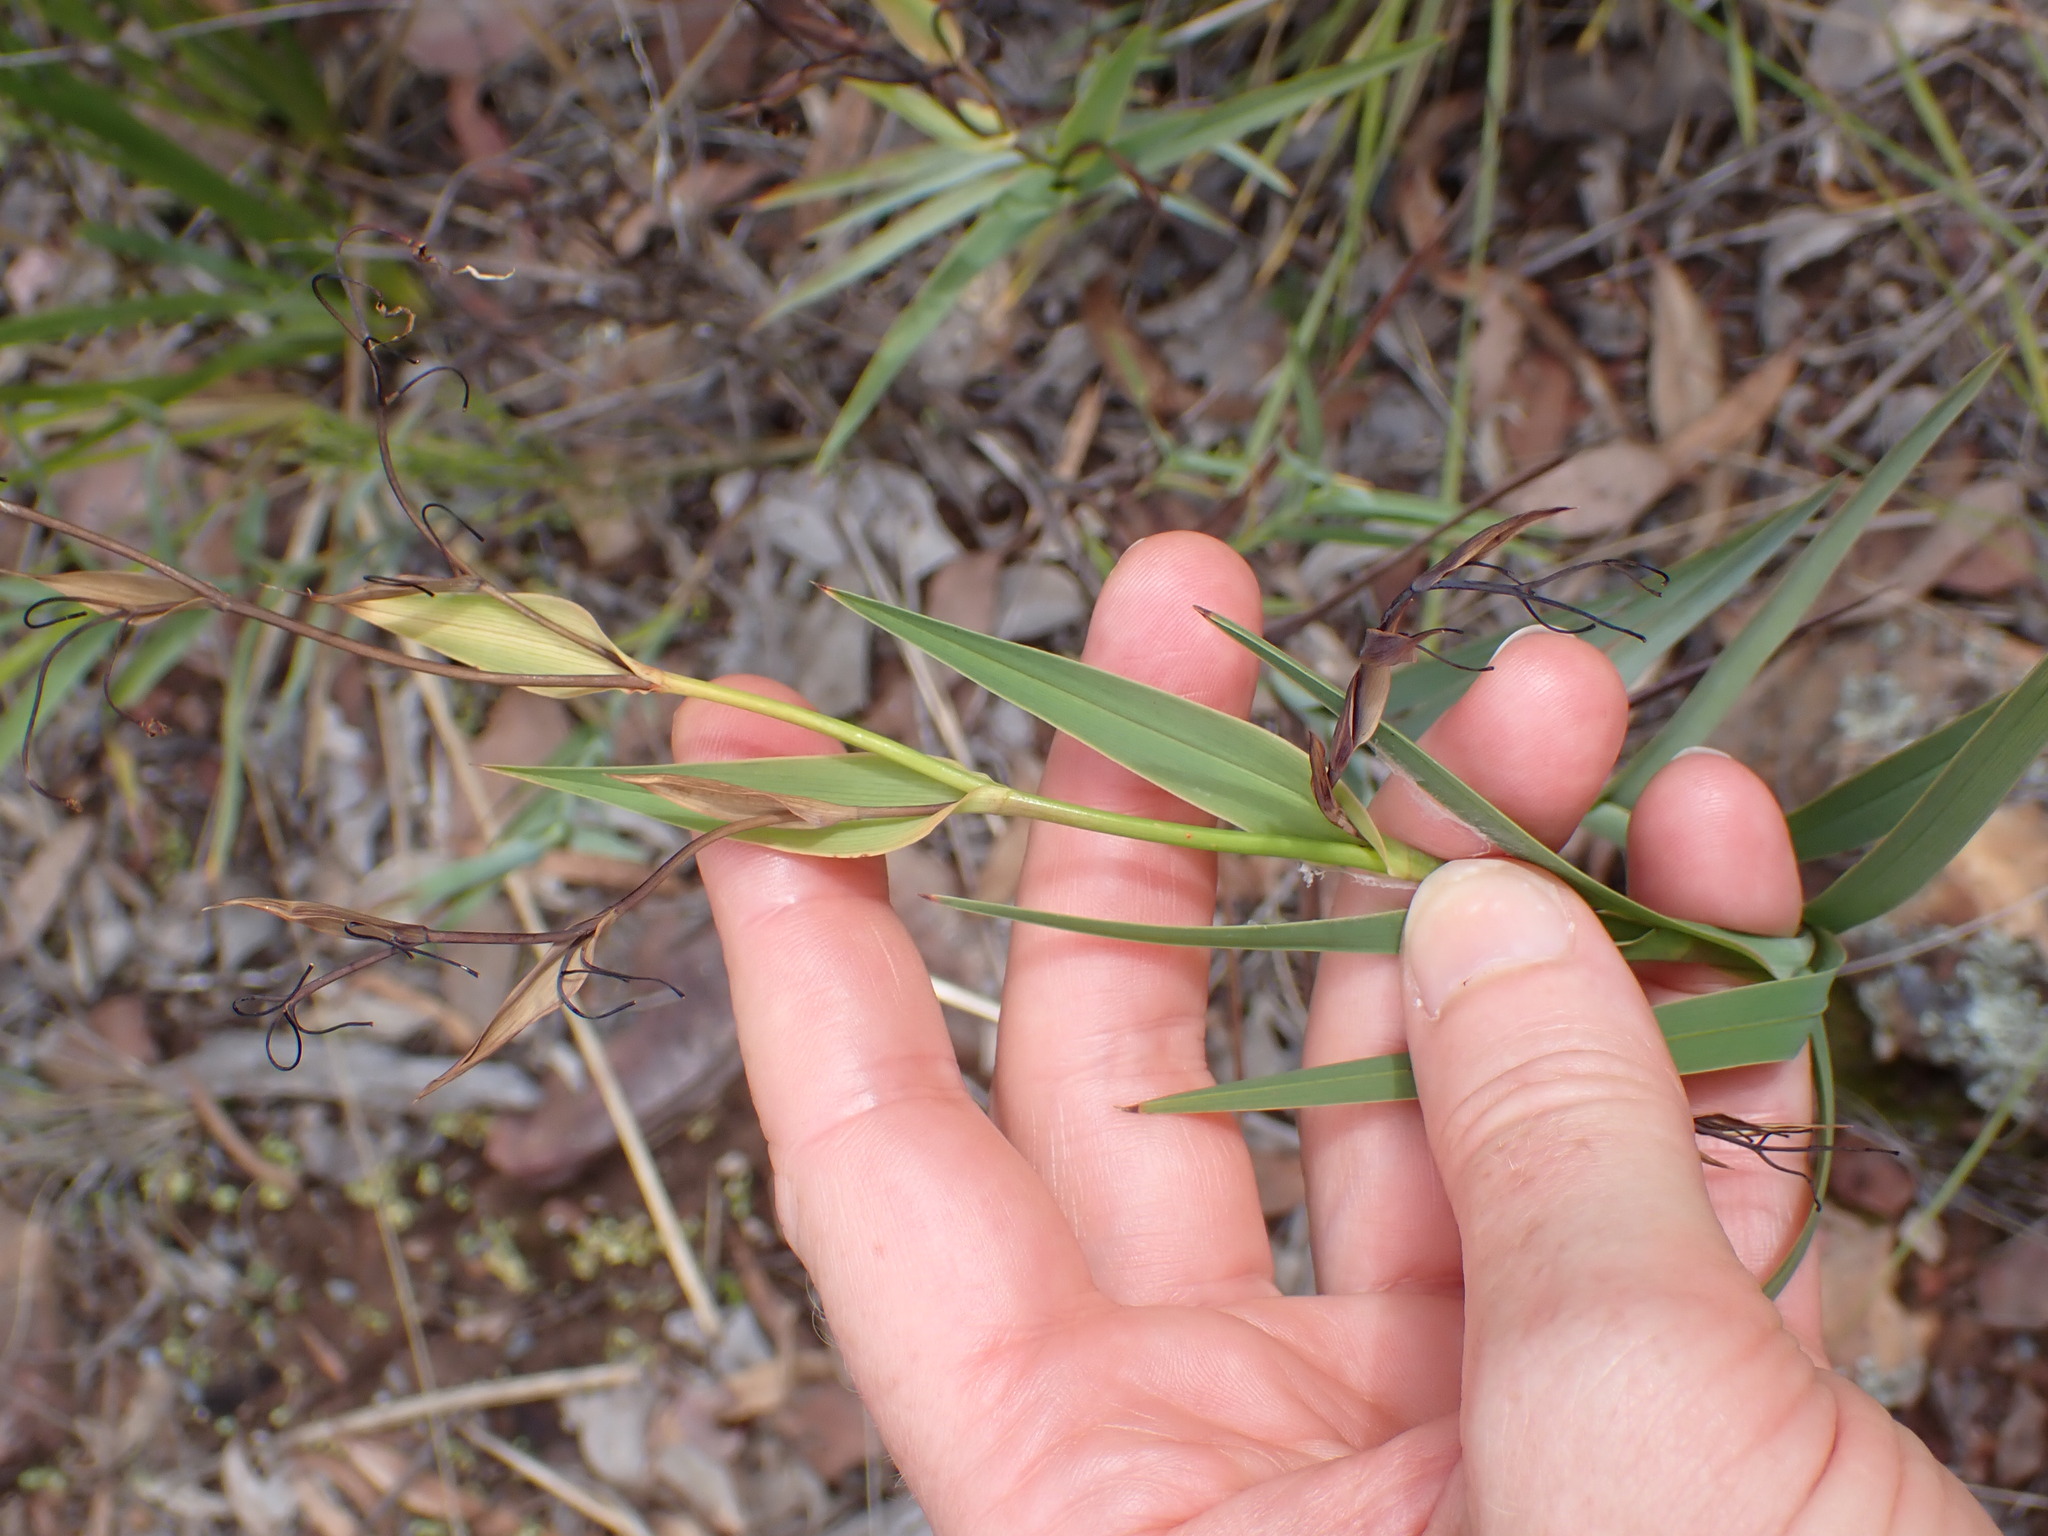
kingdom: Plantae
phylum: Tracheophyta
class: Liliopsida
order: Asparagales
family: Asphodelaceae
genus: Stypandra
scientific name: Stypandra glauca
